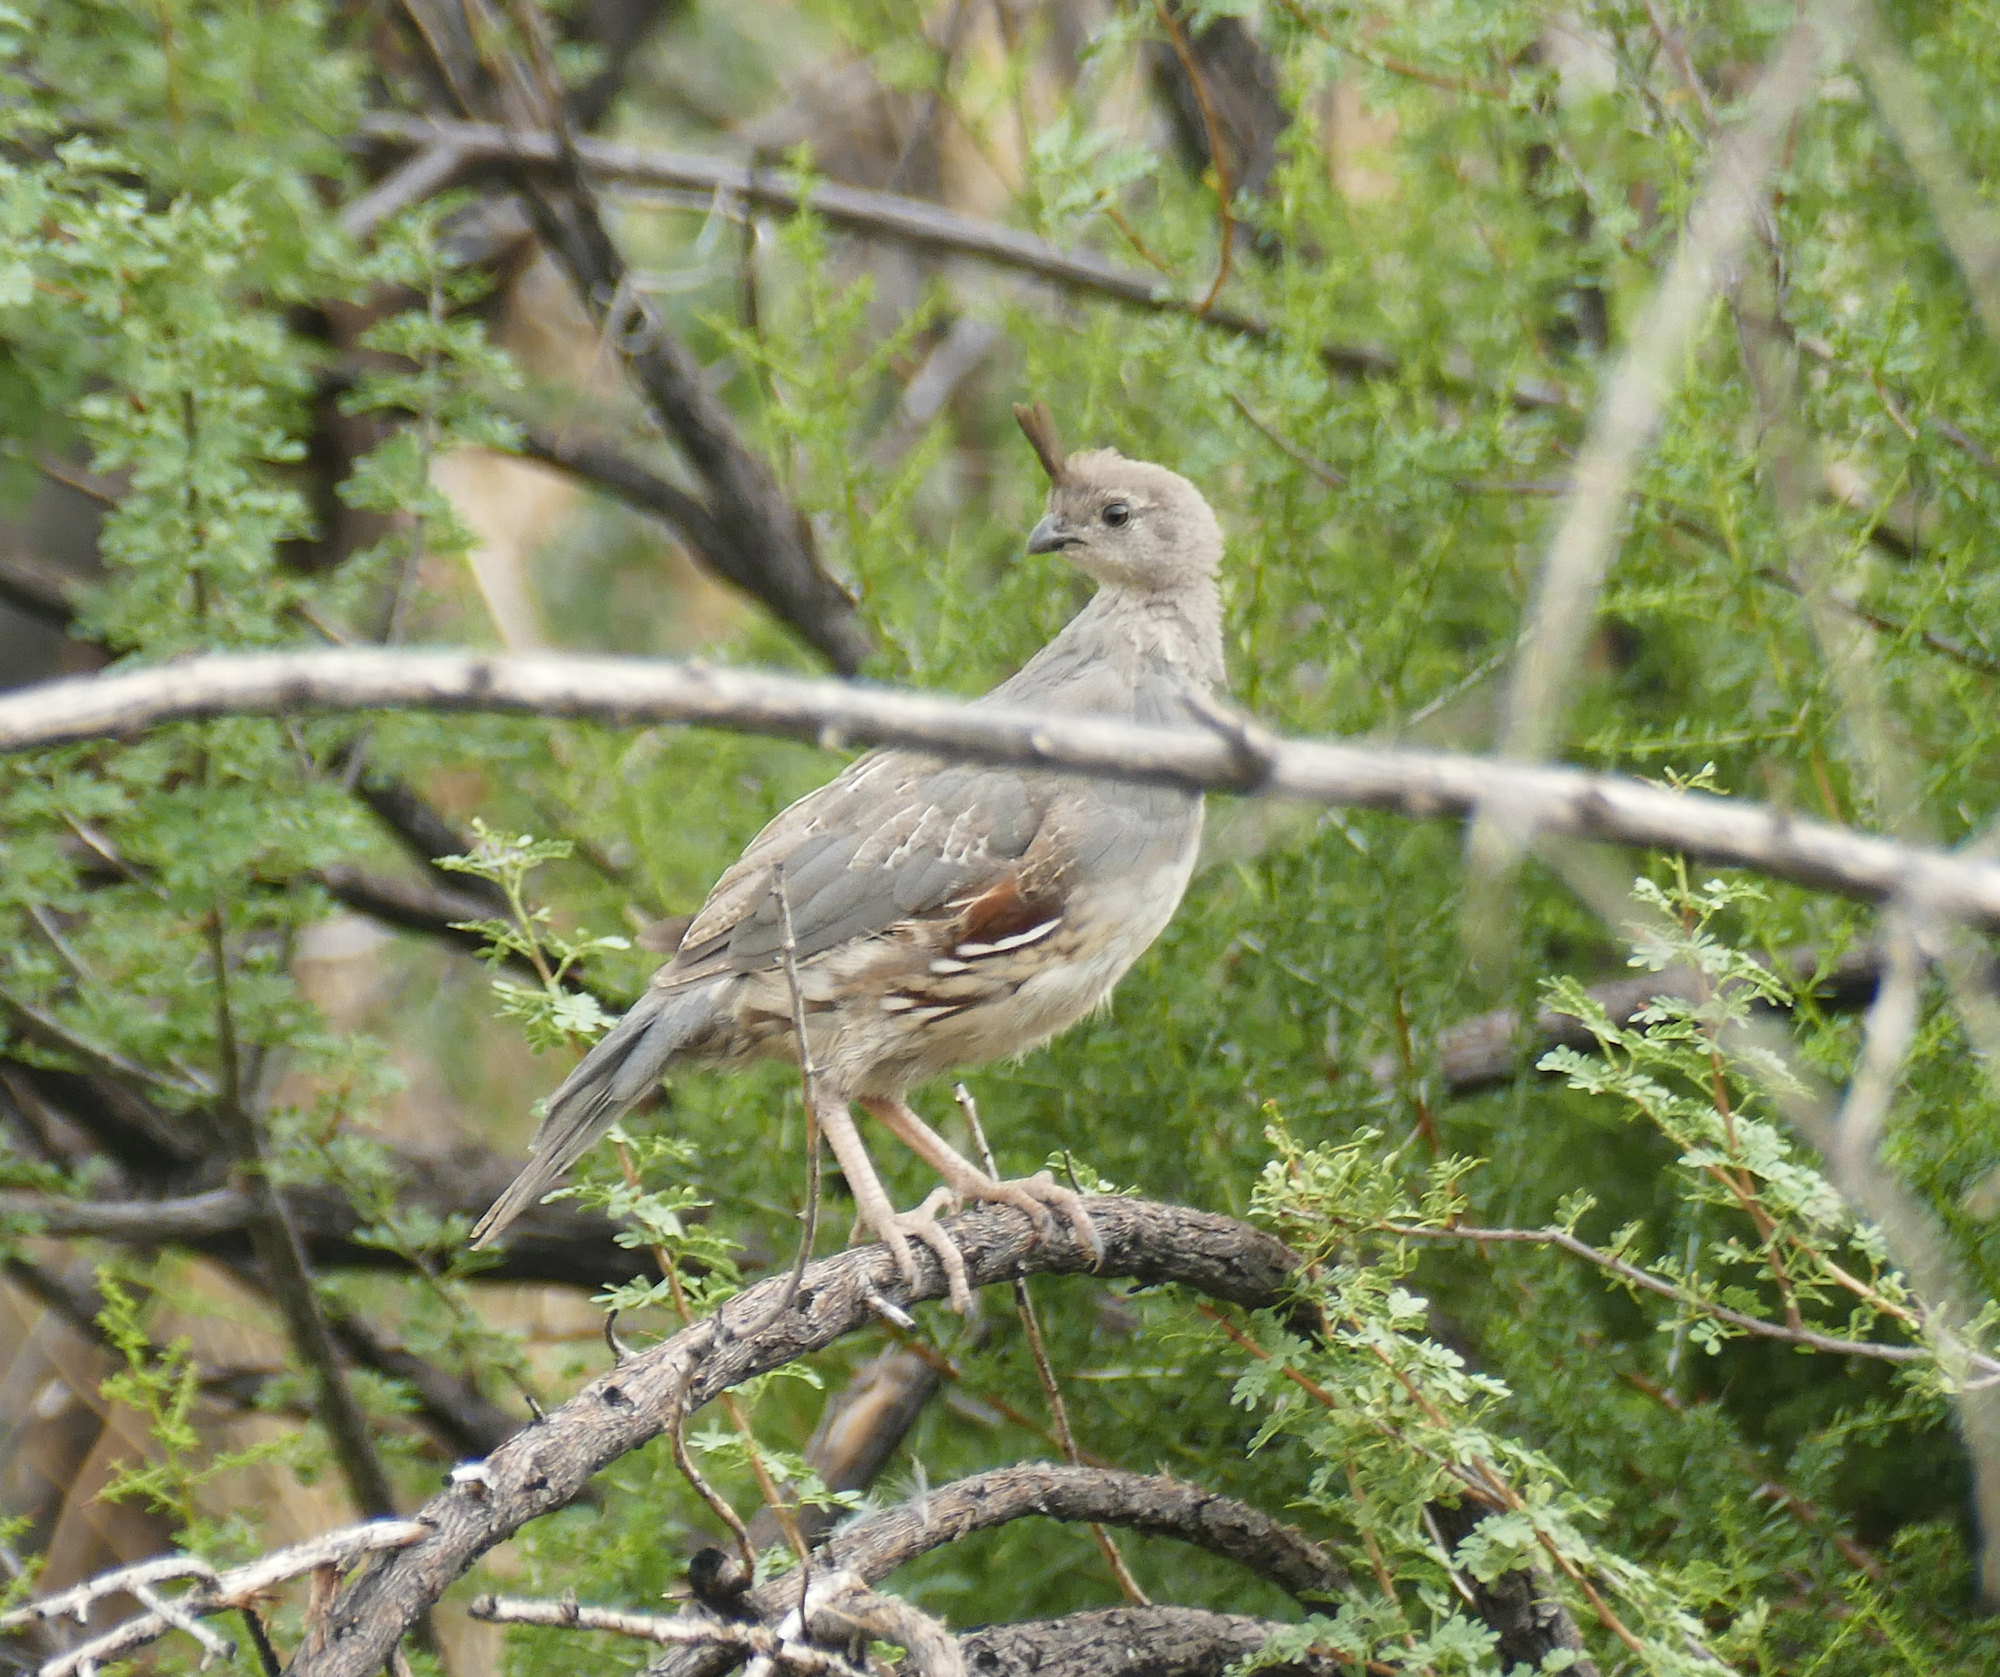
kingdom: Animalia
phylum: Chordata
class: Aves
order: Galliformes
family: Odontophoridae
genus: Callipepla
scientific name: Callipepla gambelii
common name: Gambel's quail
